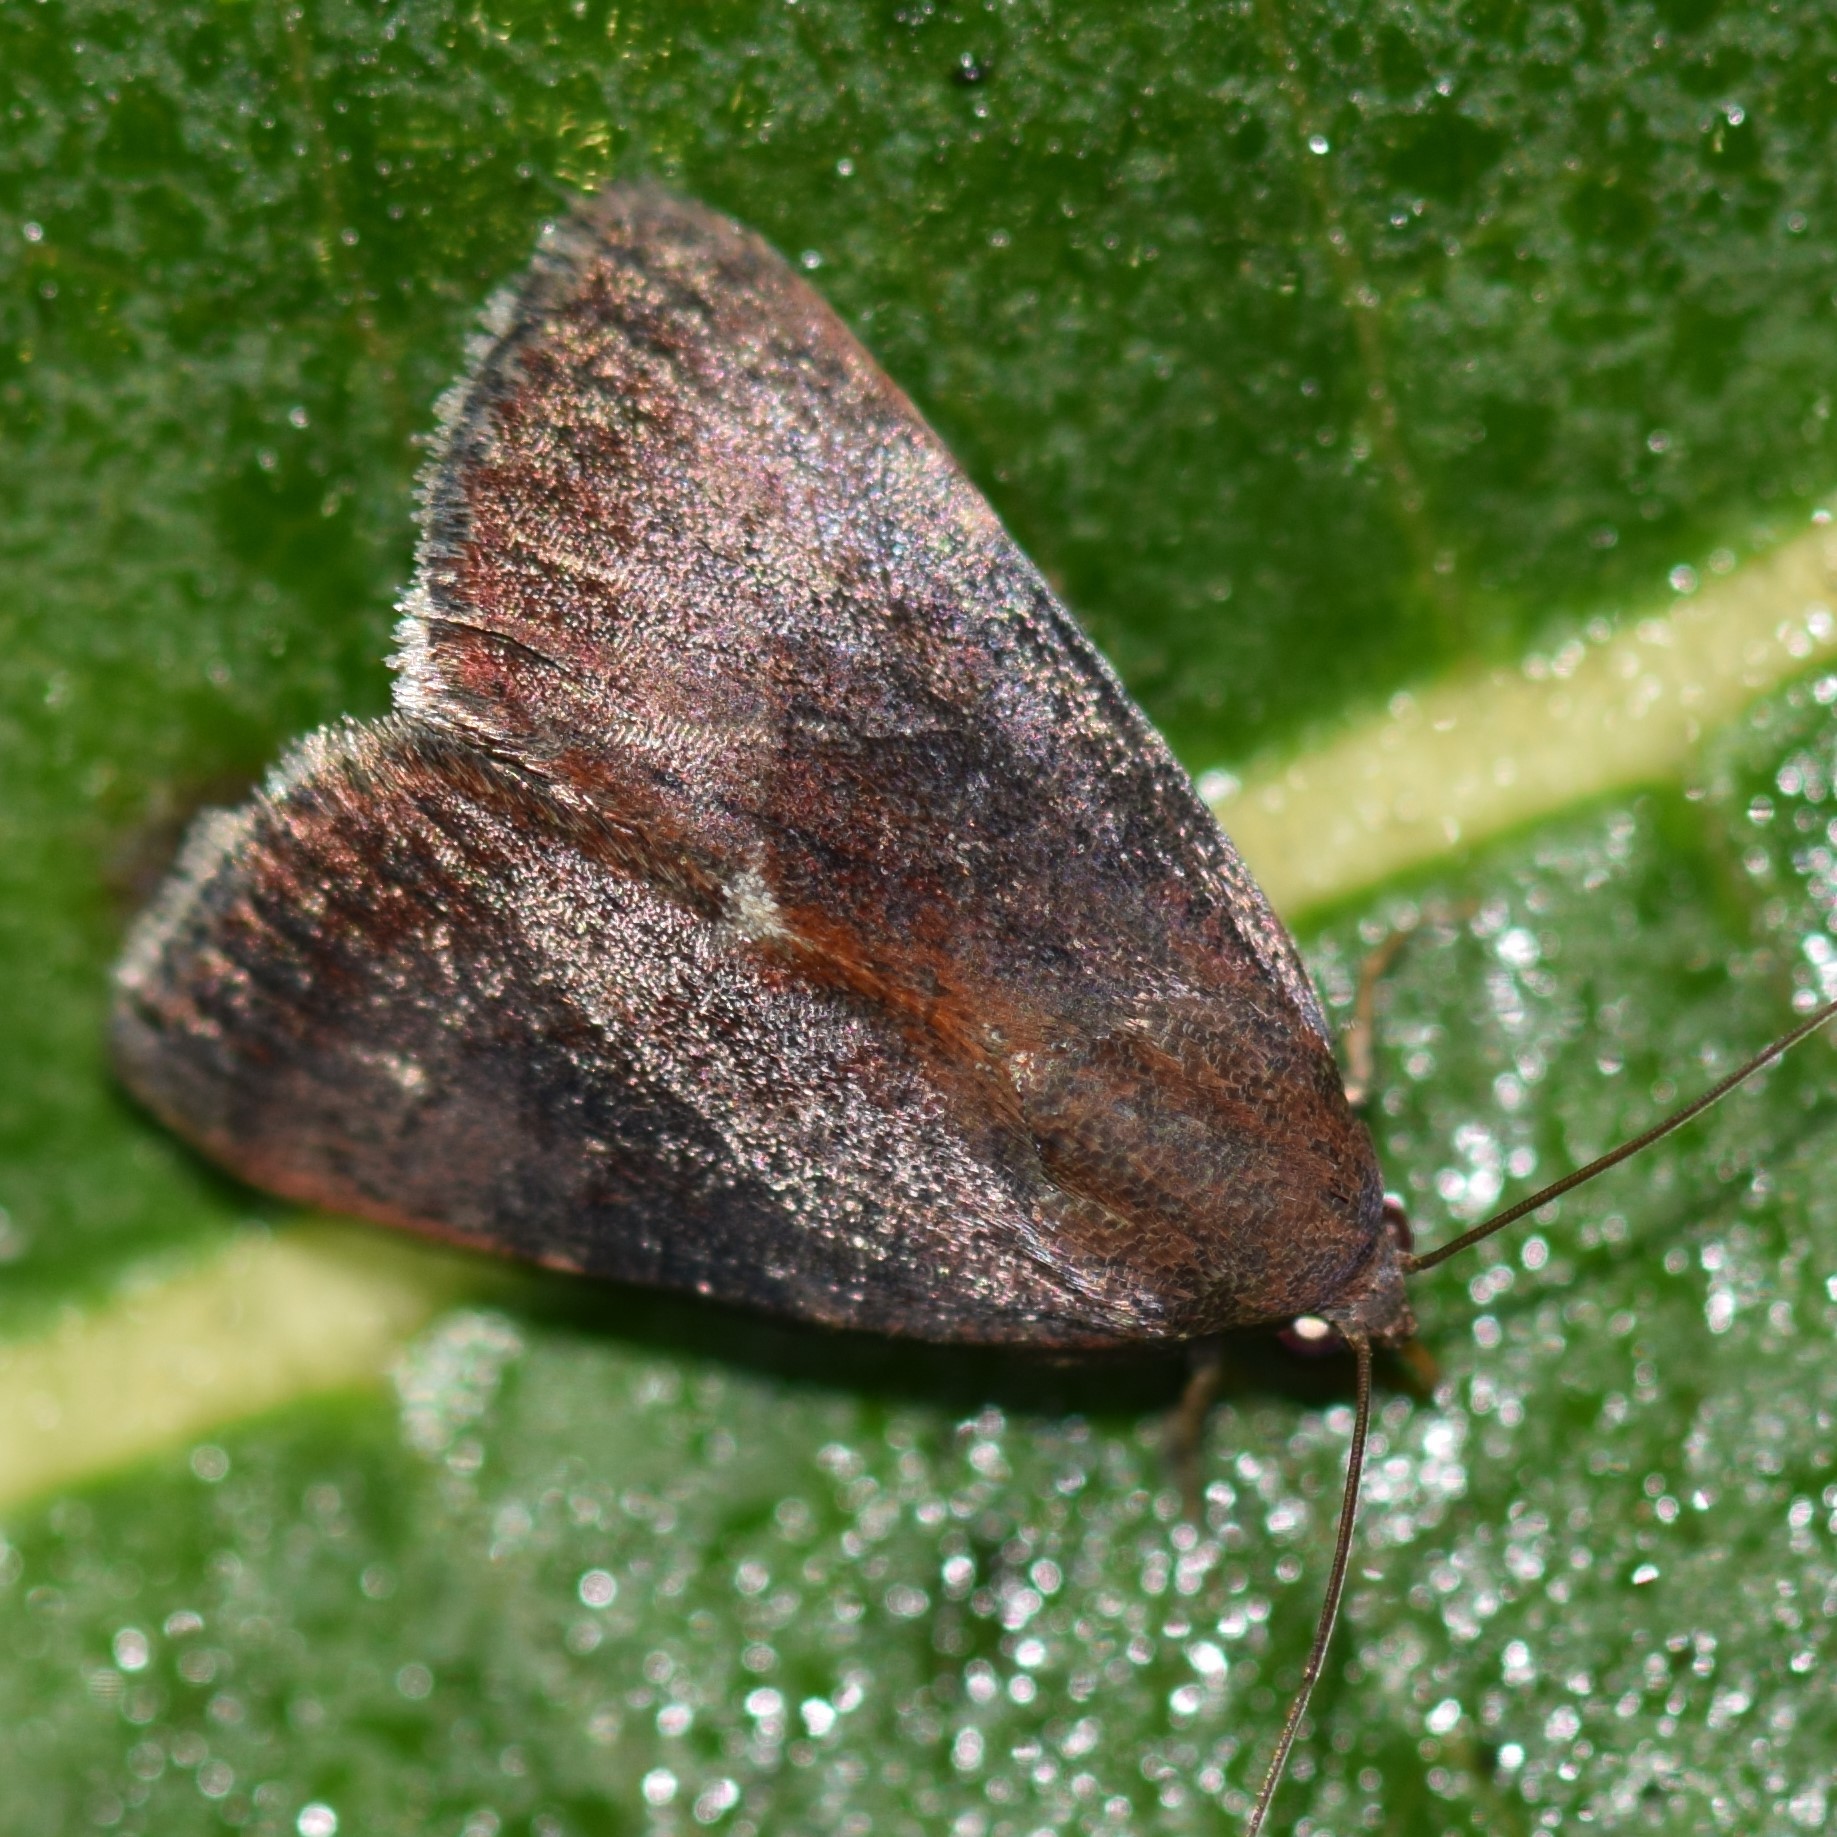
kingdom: Animalia
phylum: Arthropoda
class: Insecta
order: Lepidoptera
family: Noctuidae
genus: Galgula
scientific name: Galgula partita
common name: Wedgeling
